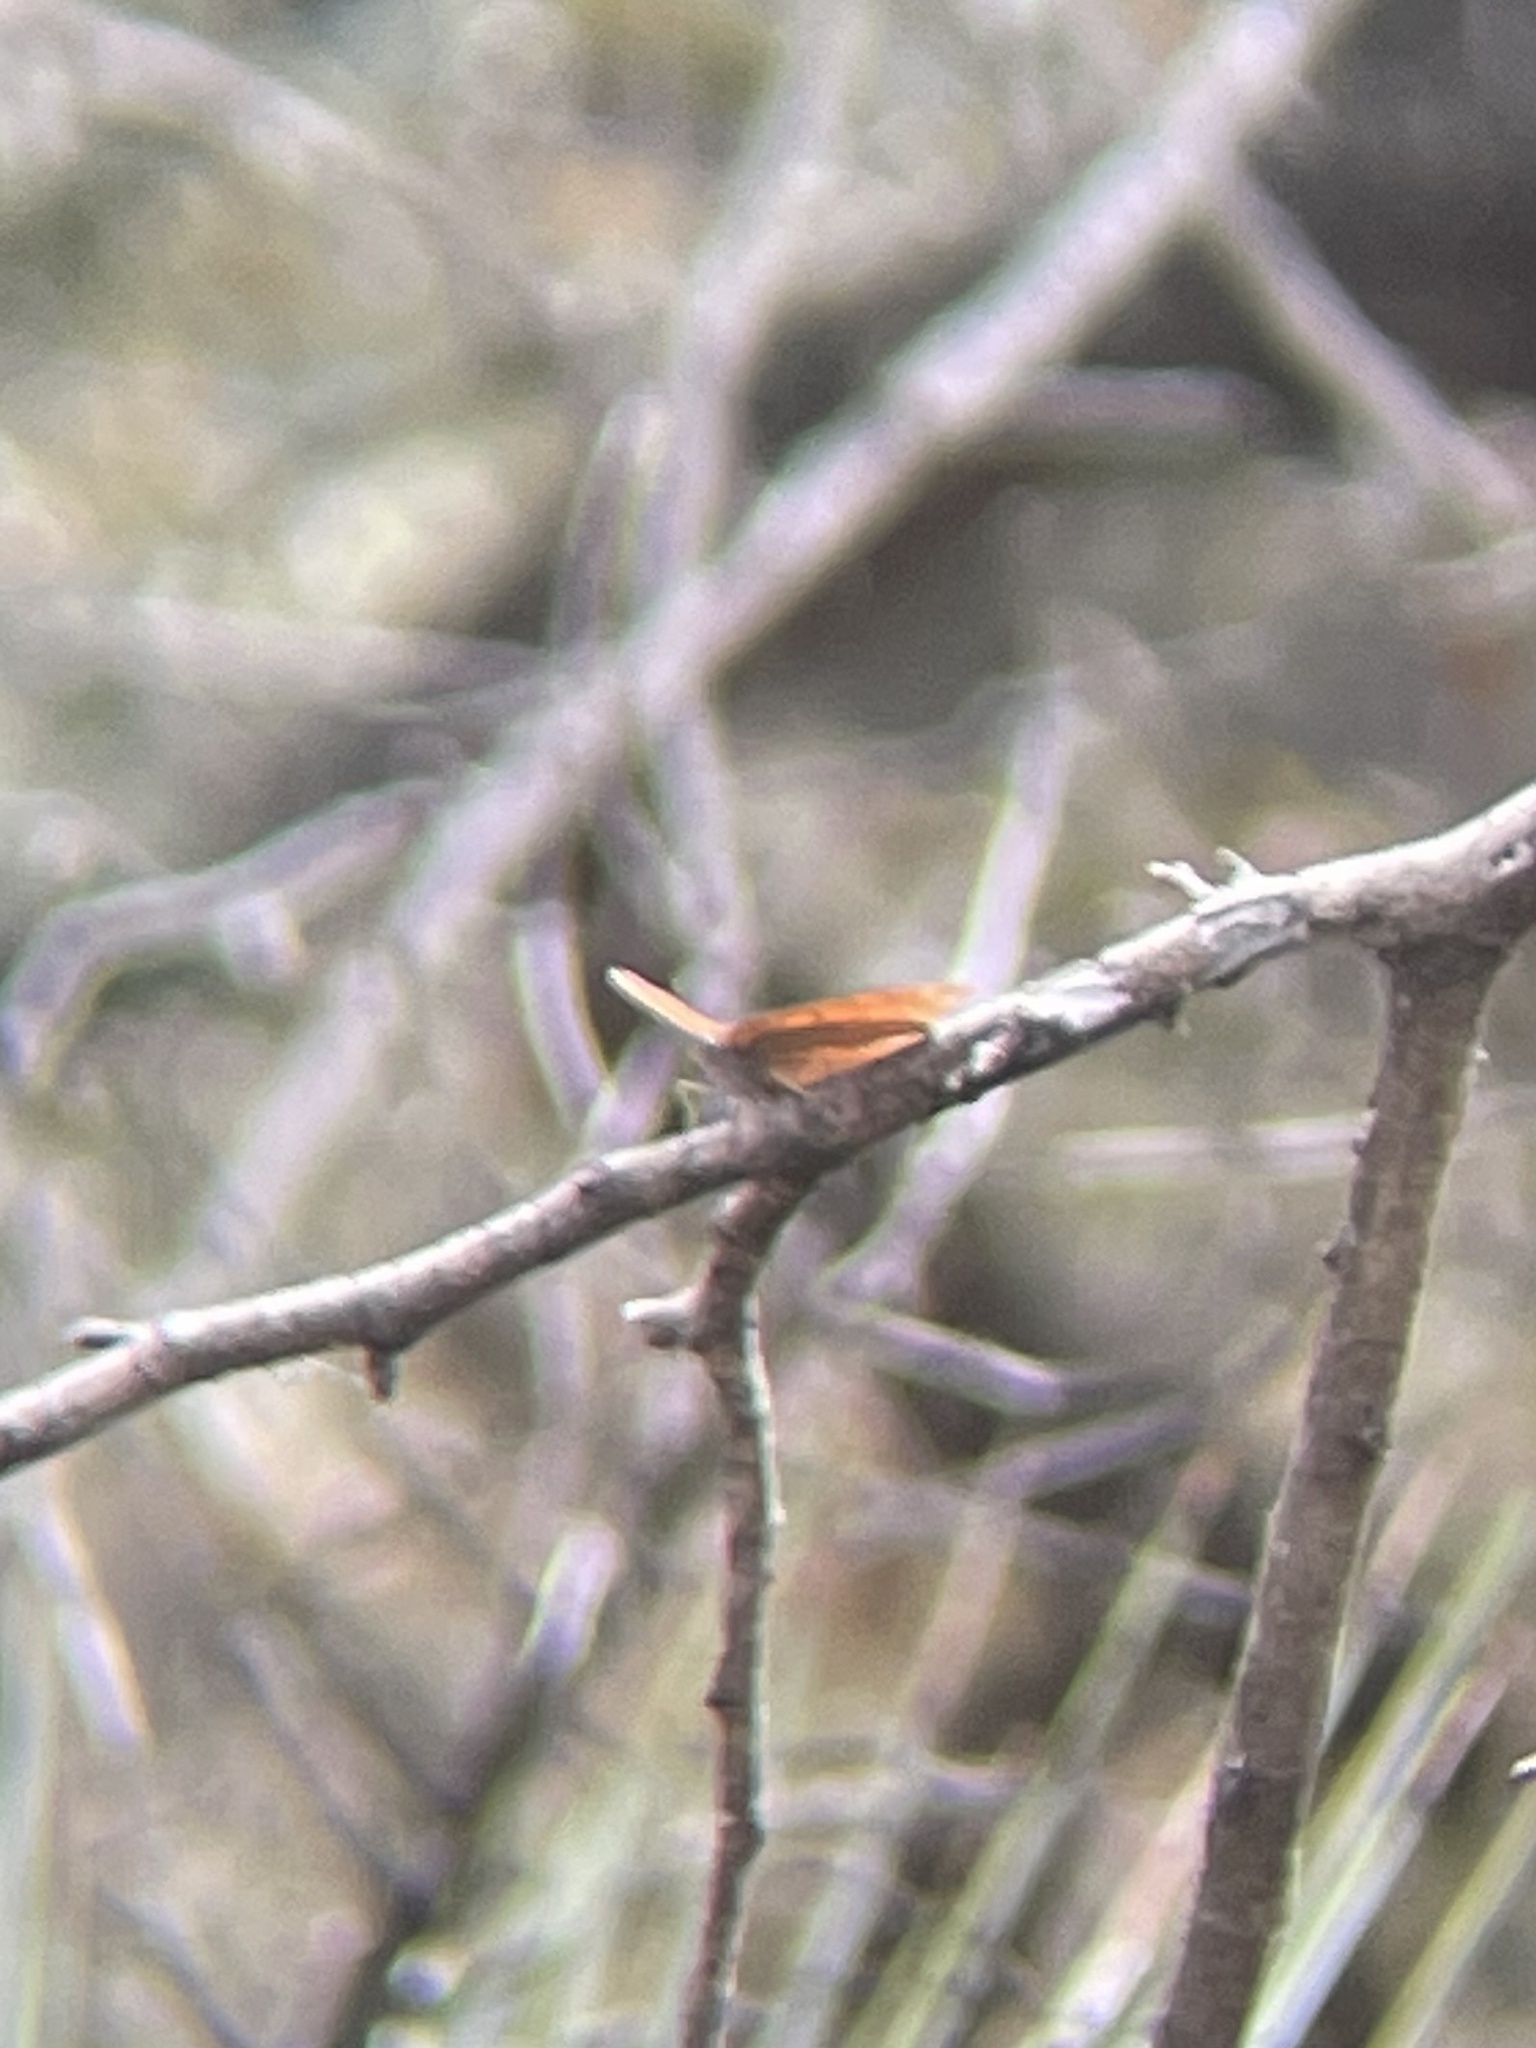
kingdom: Animalia
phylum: Arthropoda
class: Insecta
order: Lepidoptera
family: Nymphalidae
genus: Anaea
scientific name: Anaea andria
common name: Goatweed leafwing
